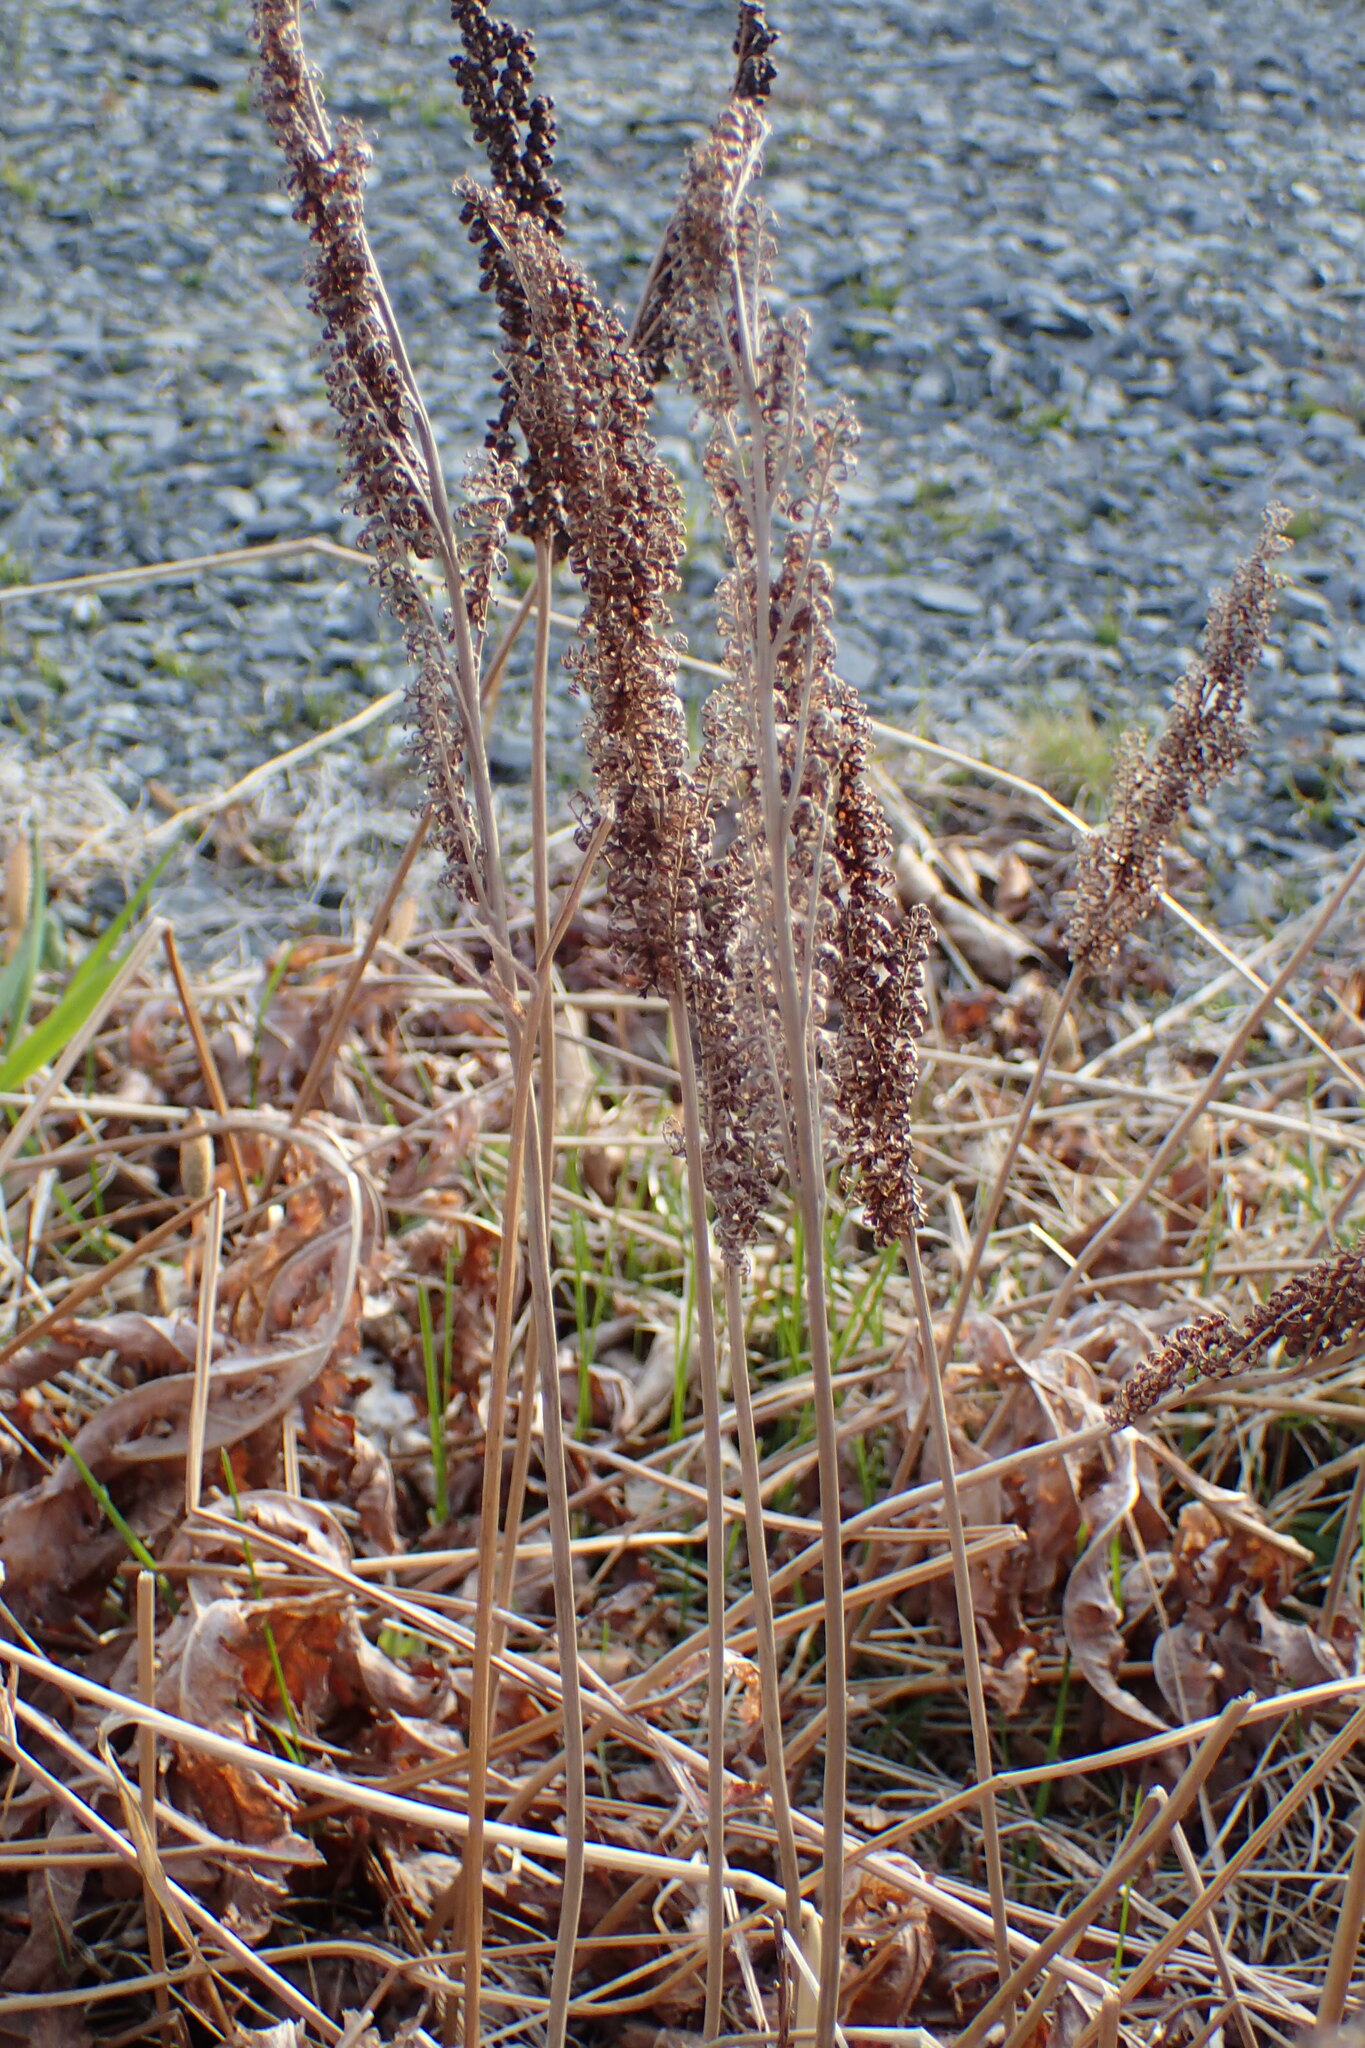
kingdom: Plantae
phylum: Tracheophyta
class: Polypodiopsida
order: Polypodiales
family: Onocleaceae
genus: Onoclea
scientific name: Onoclea sensibilis
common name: Sensitive fern
